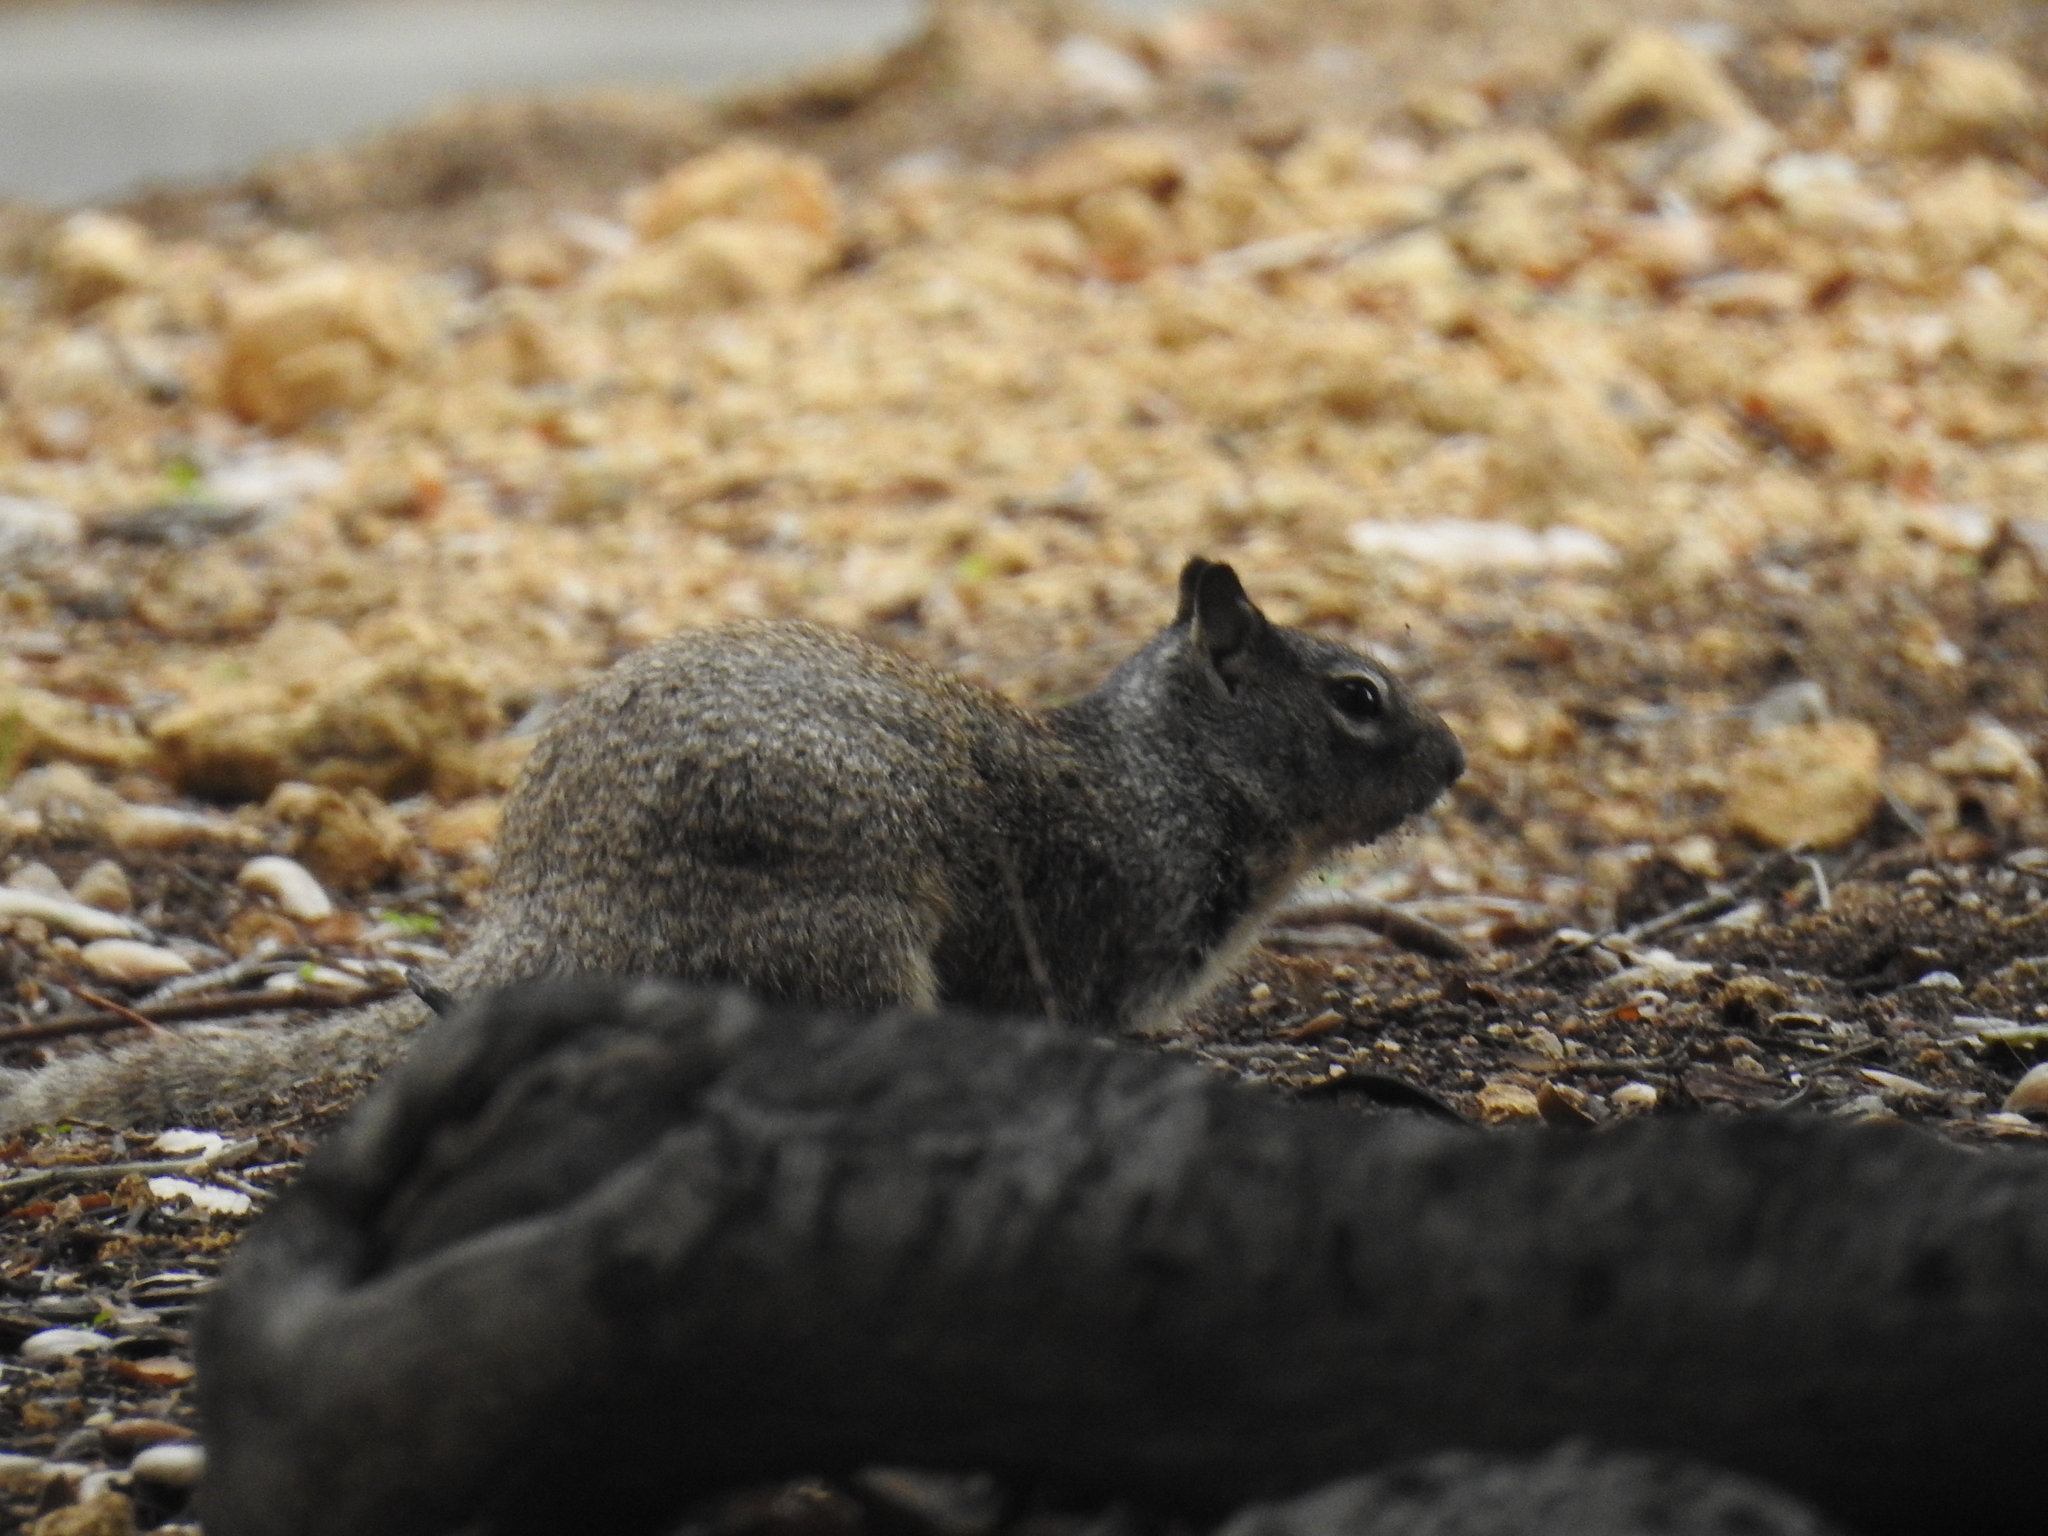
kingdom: Animalia
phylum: Chordata
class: Mammalia
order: Rodentia
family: Sciuridae
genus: Otospermophilus
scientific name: Otospermophilus beecheyi
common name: California ground squirrel
